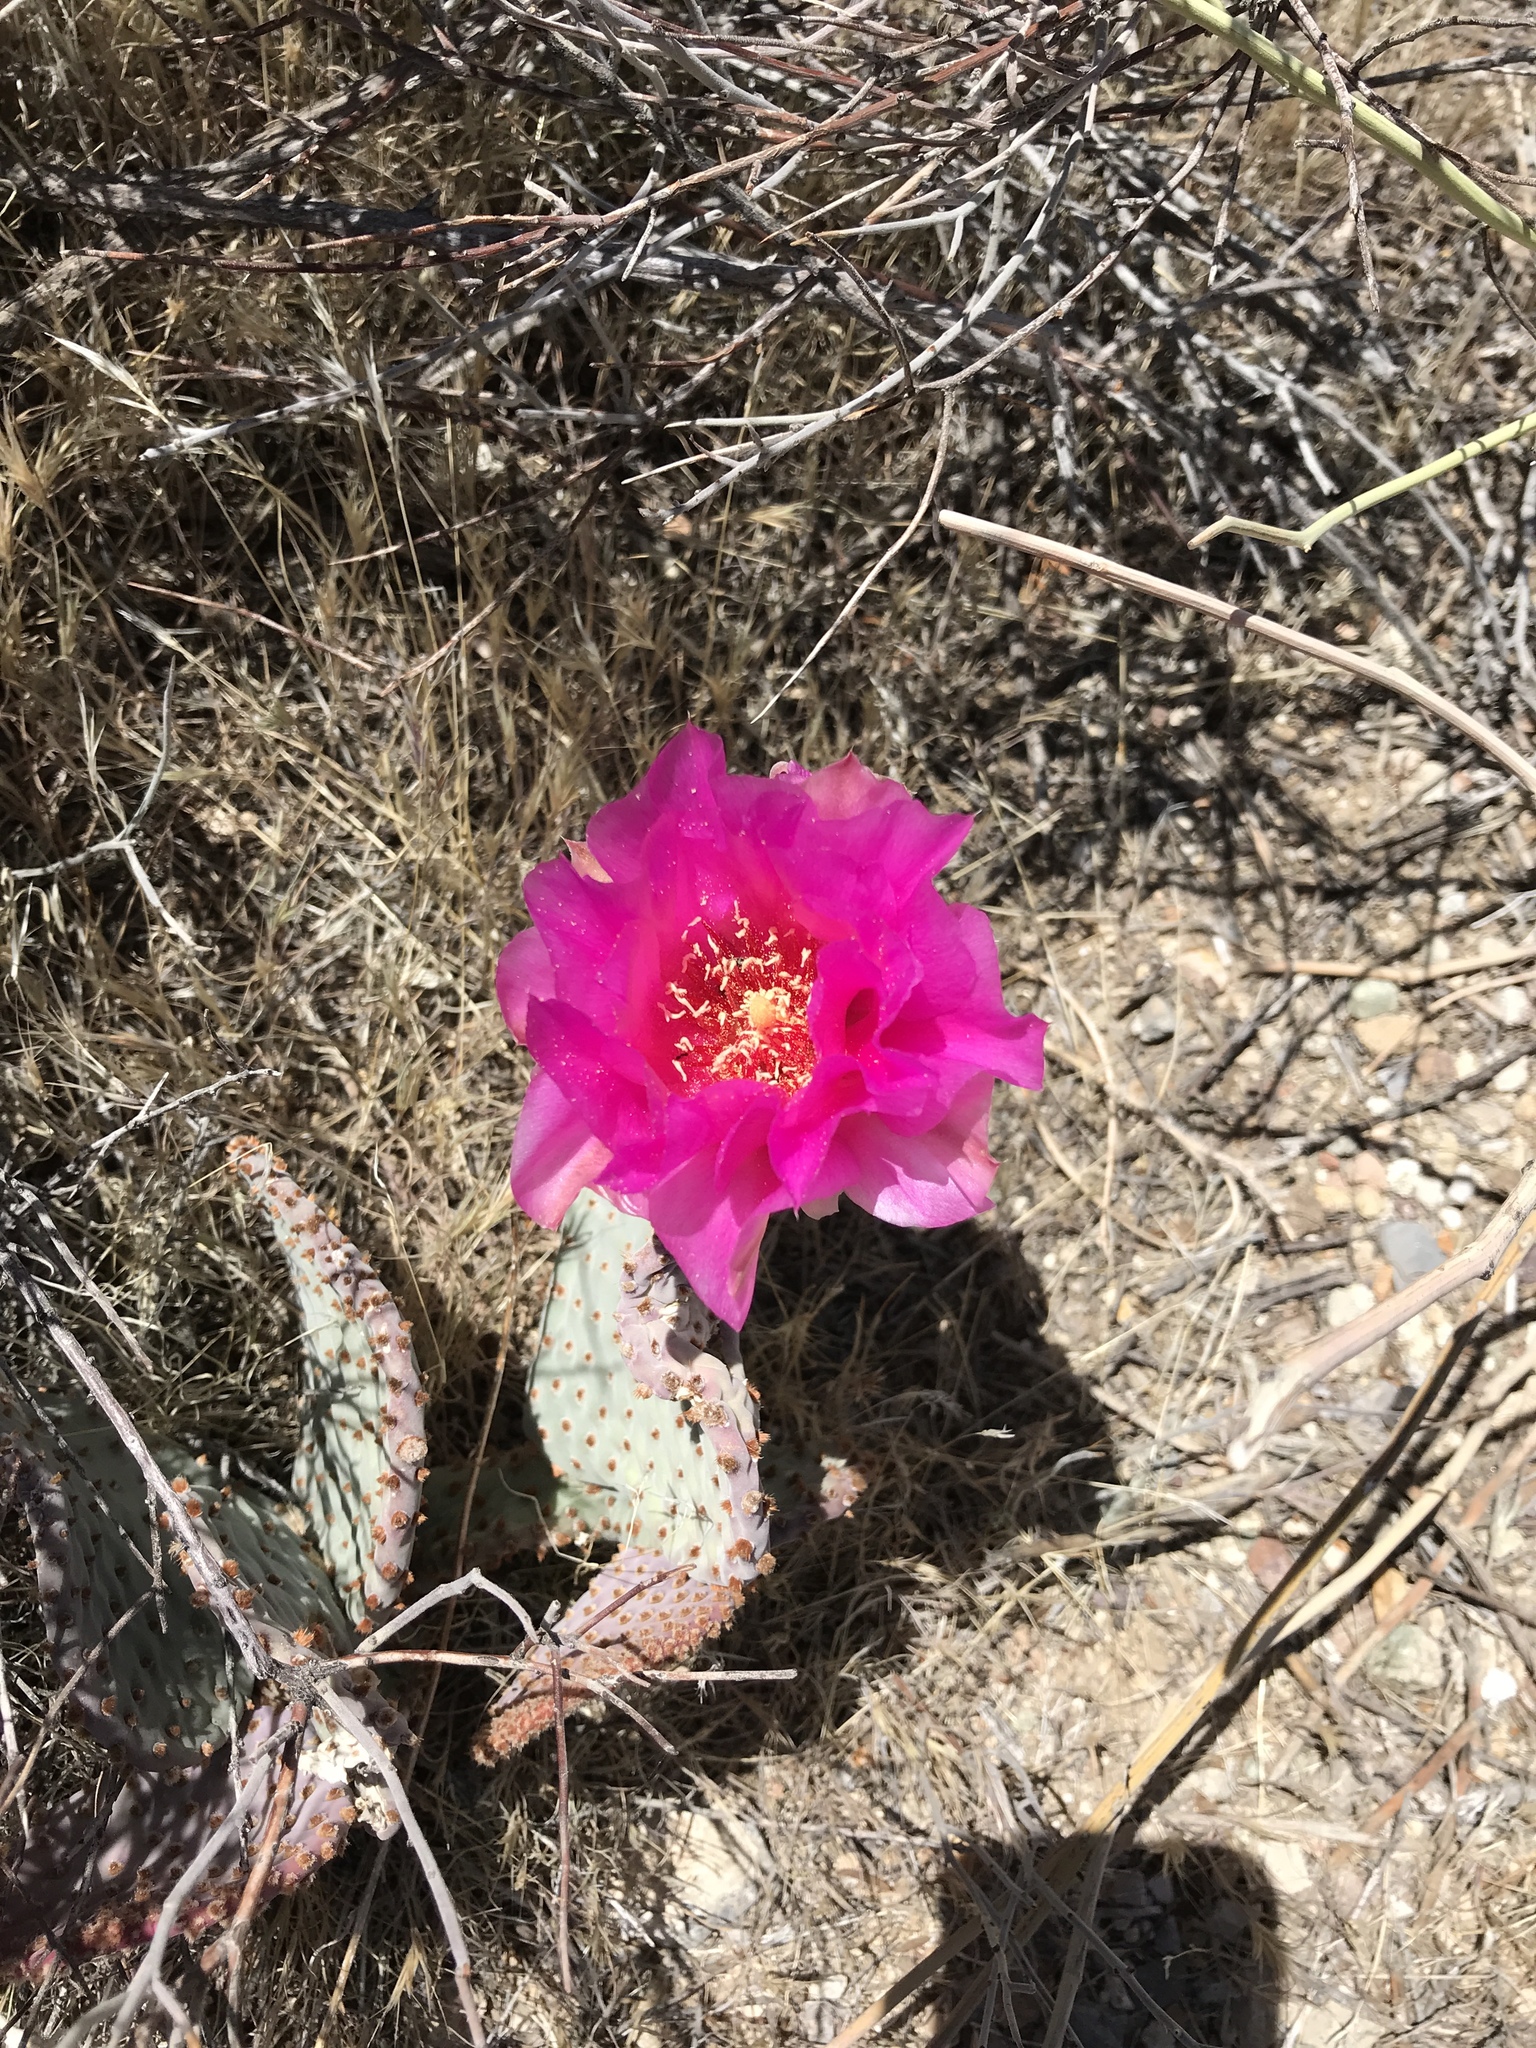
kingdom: Plantae
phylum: Tracheophyta
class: Magnoliopsida
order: Caryophyllales
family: Cactaceae
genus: Opuntia
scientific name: Opuntia basilaris
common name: Beavertail prickly-pear
